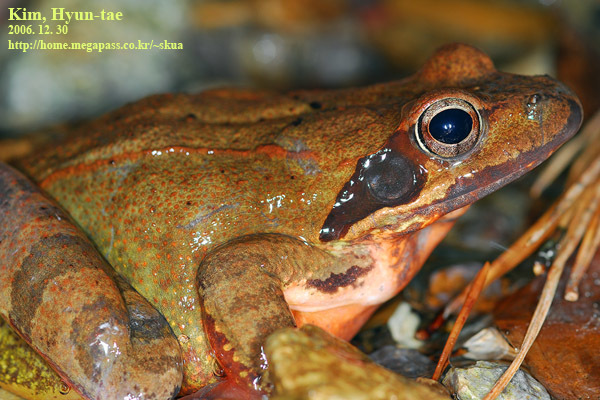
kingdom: Animalia
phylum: Chordata
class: Amphibia
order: Anura
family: Ranidae
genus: Rana
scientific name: Rana uenoi
